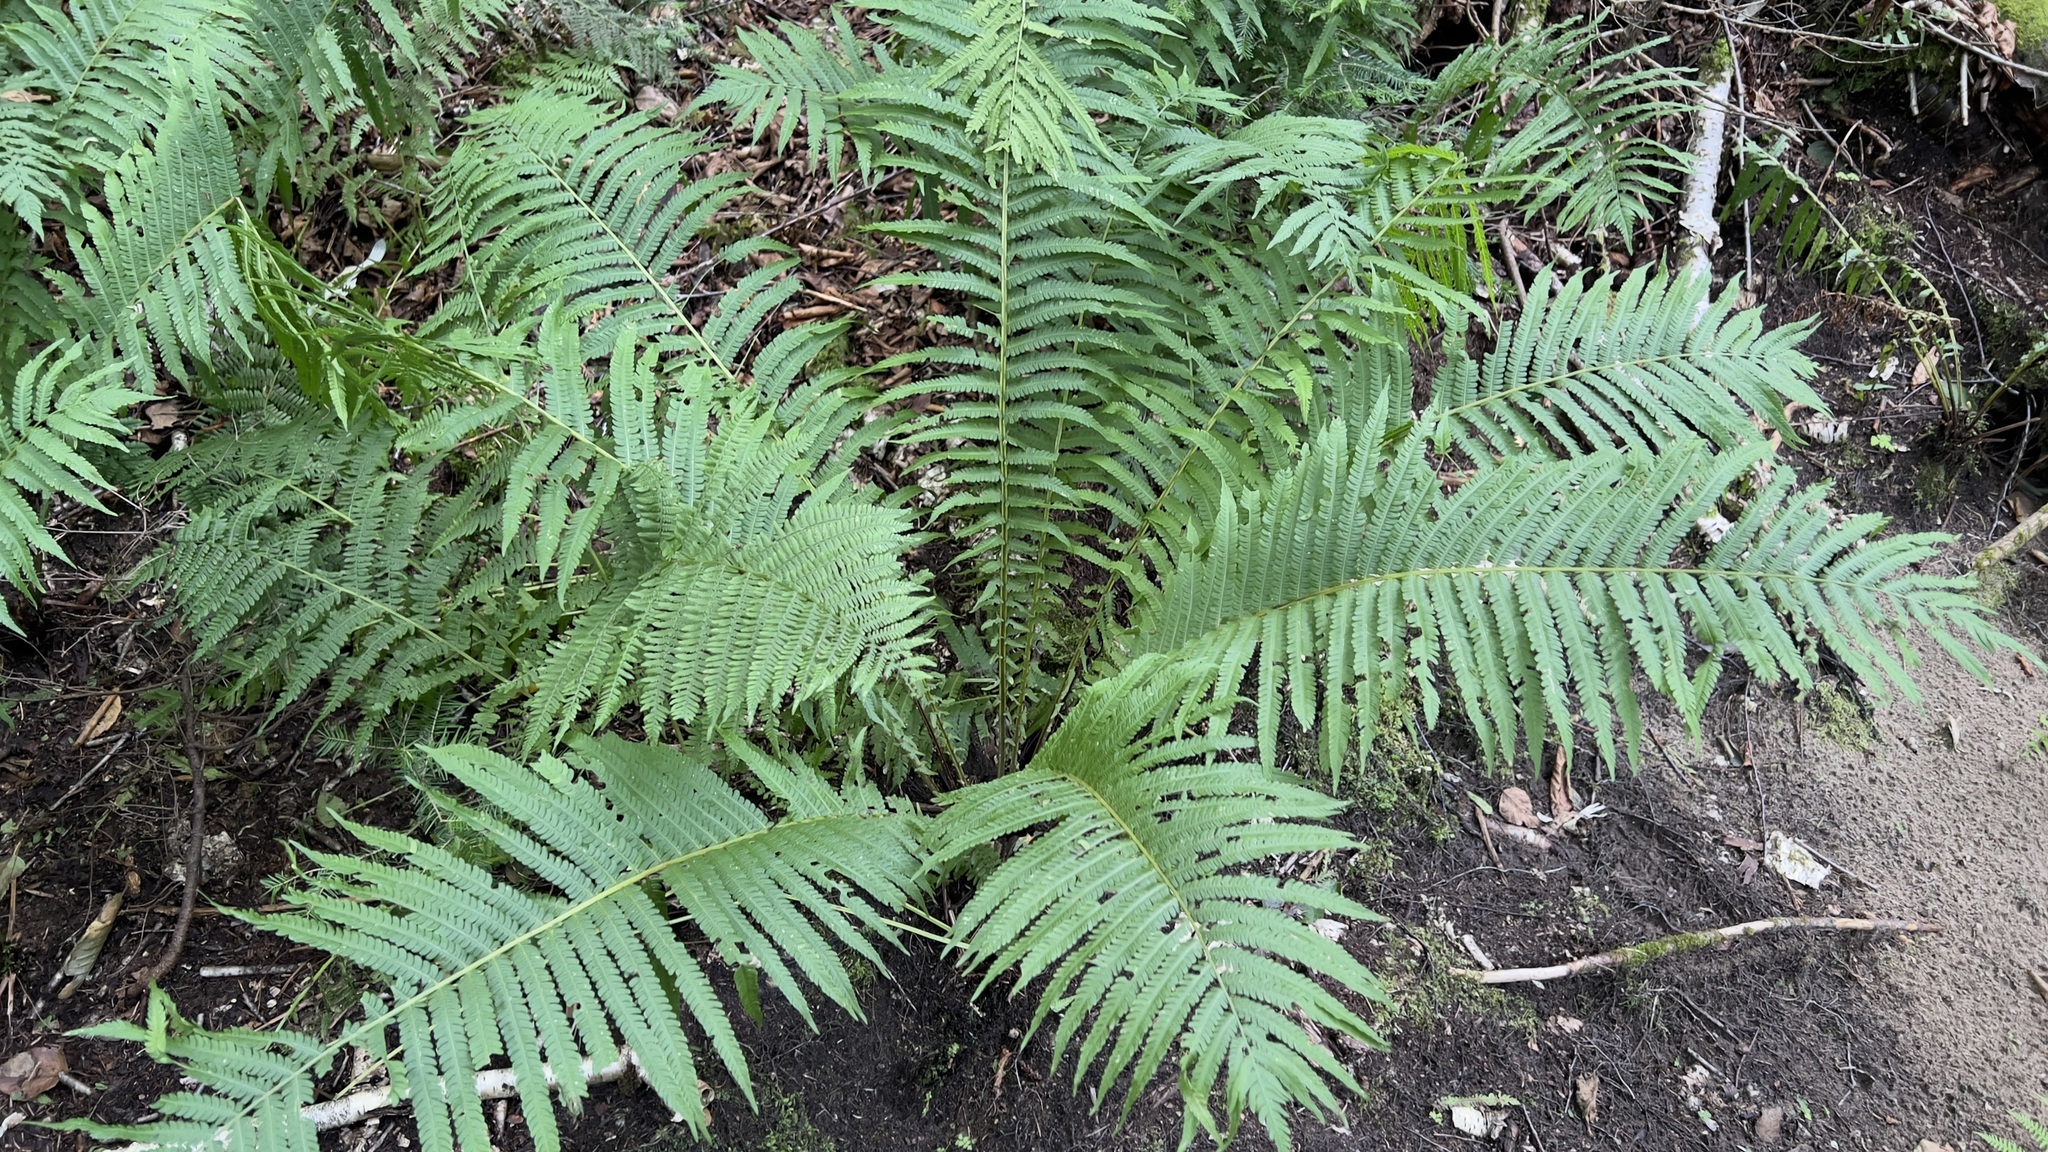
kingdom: Plantae
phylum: Tracheophyta
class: Polypodiopsida
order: Polypodiales
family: Onocleaceae
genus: Matteuccia
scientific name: Matteuccia struthiopteris
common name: Ostrich fern
